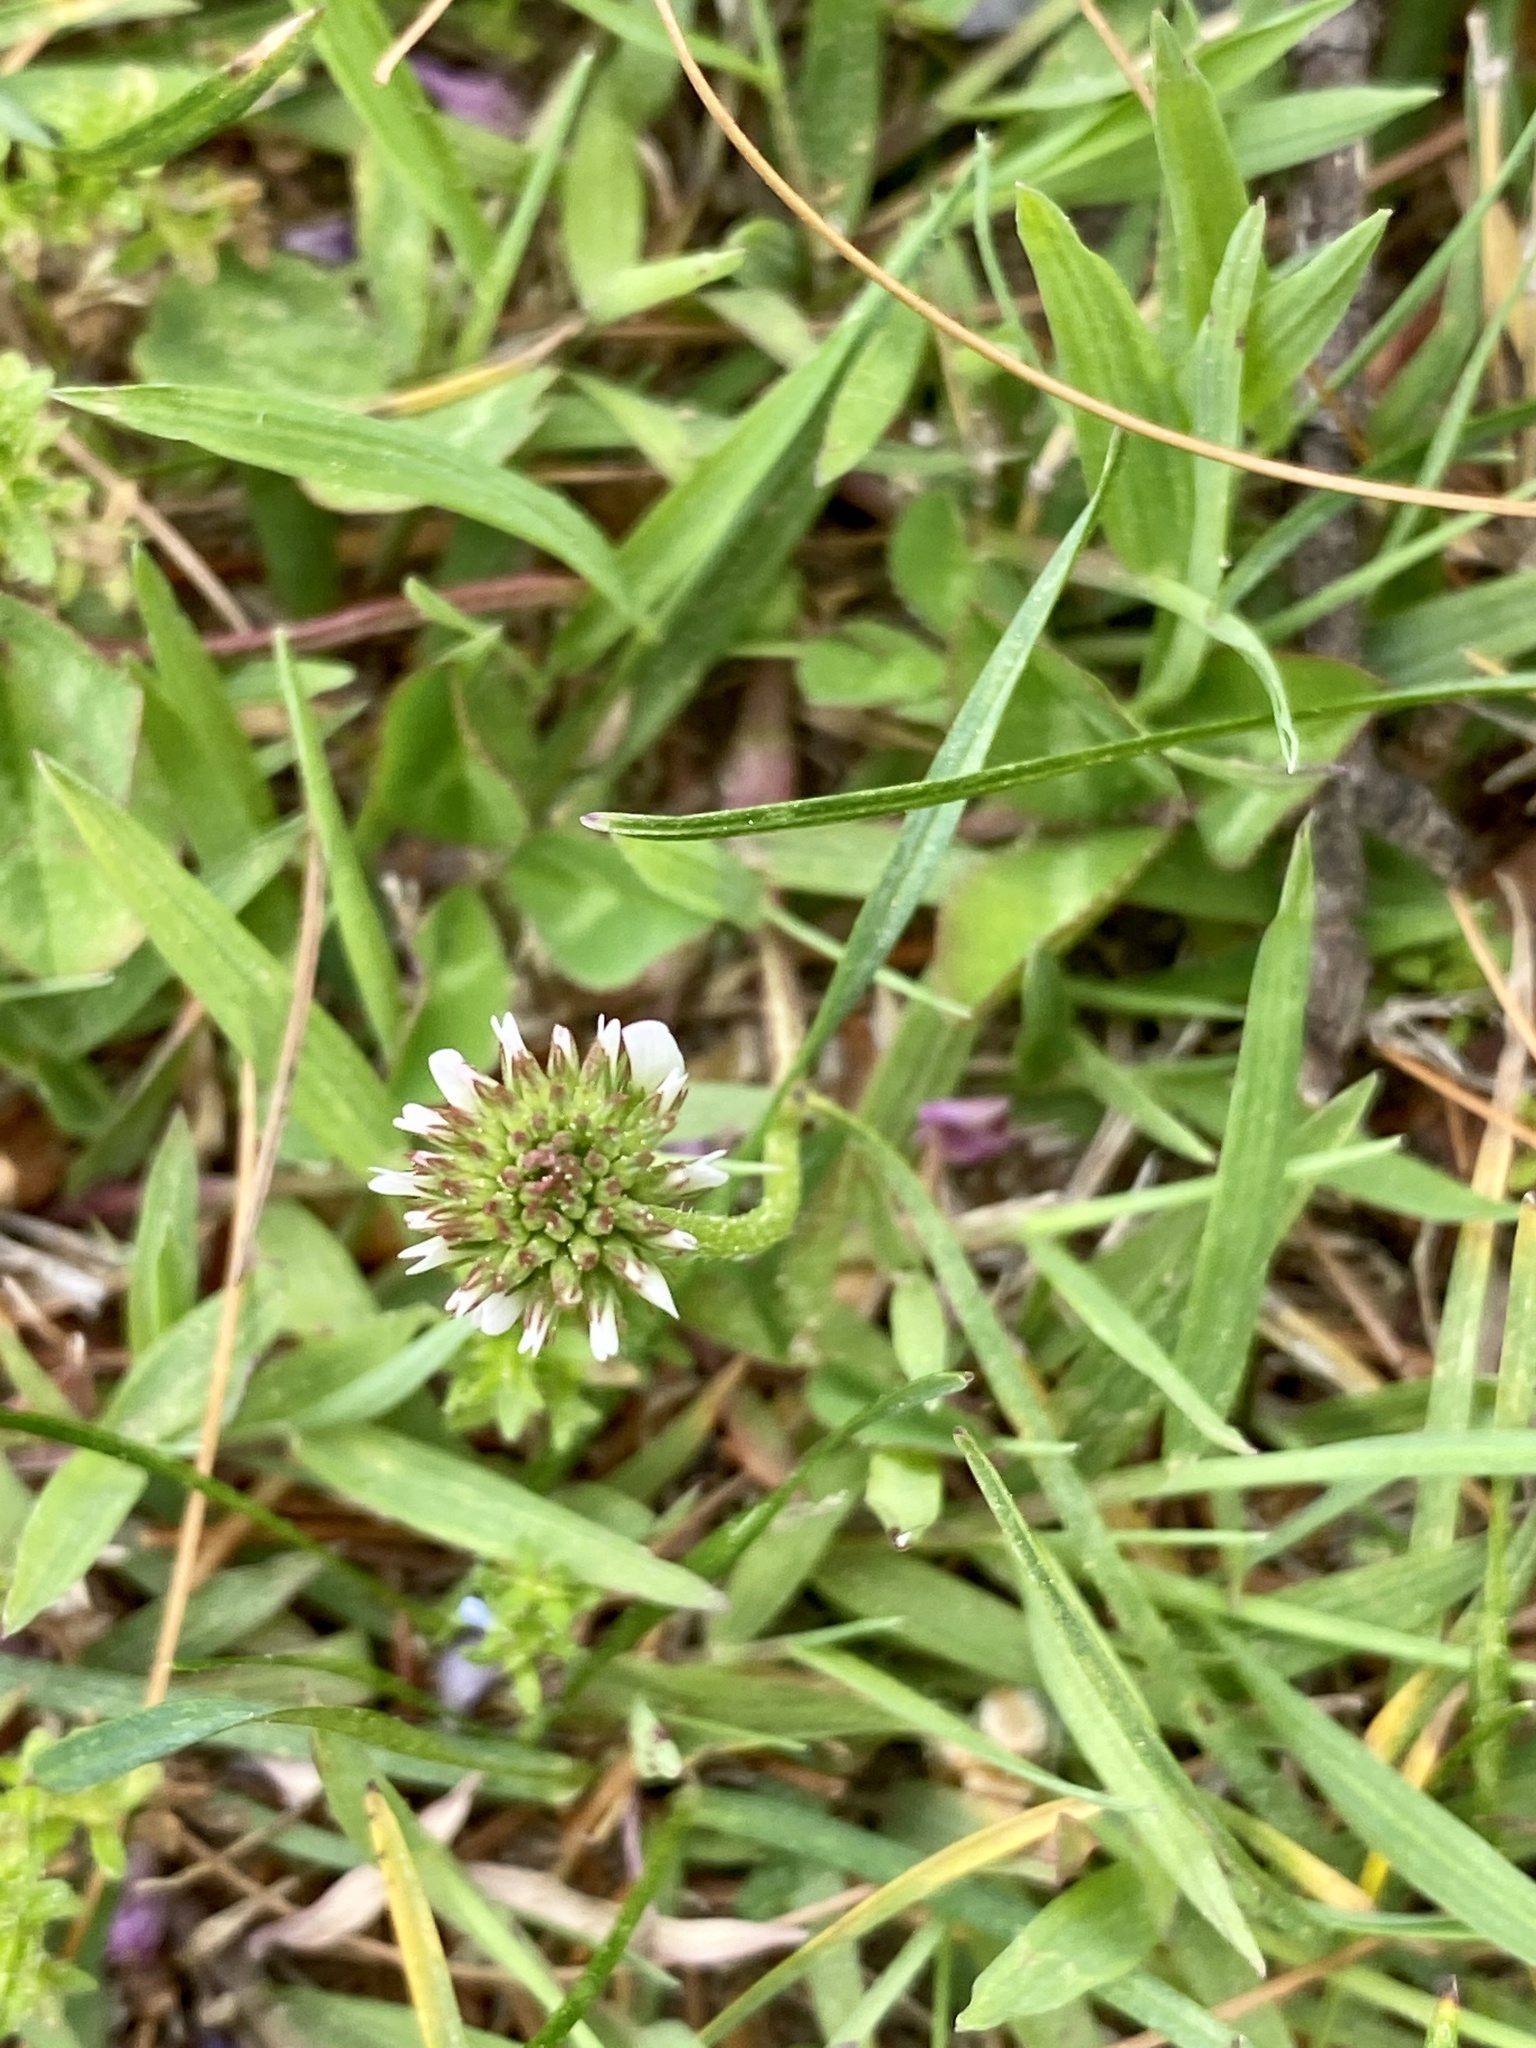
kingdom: Plantae
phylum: Tracheophyta
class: Magnoliopsida
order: Fabales
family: Fabaceae
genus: Trifolium
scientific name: Trifolium repens
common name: White clover
